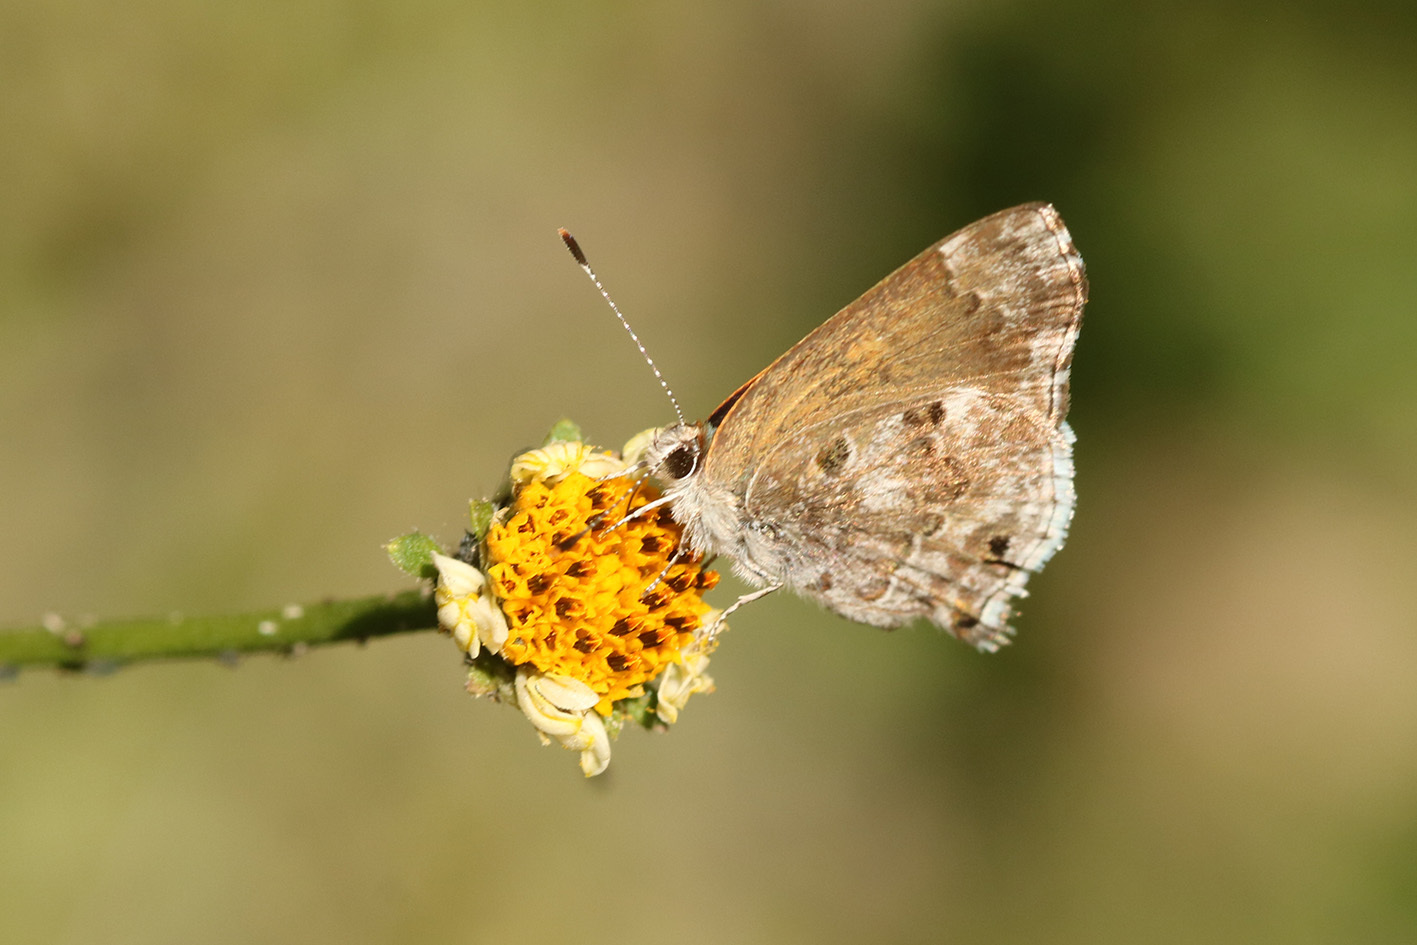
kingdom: Animalia
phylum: Arthropoda
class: Insecta
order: Lepidoptera
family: Lycaenidae
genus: Thecla
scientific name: Thecla cestri
